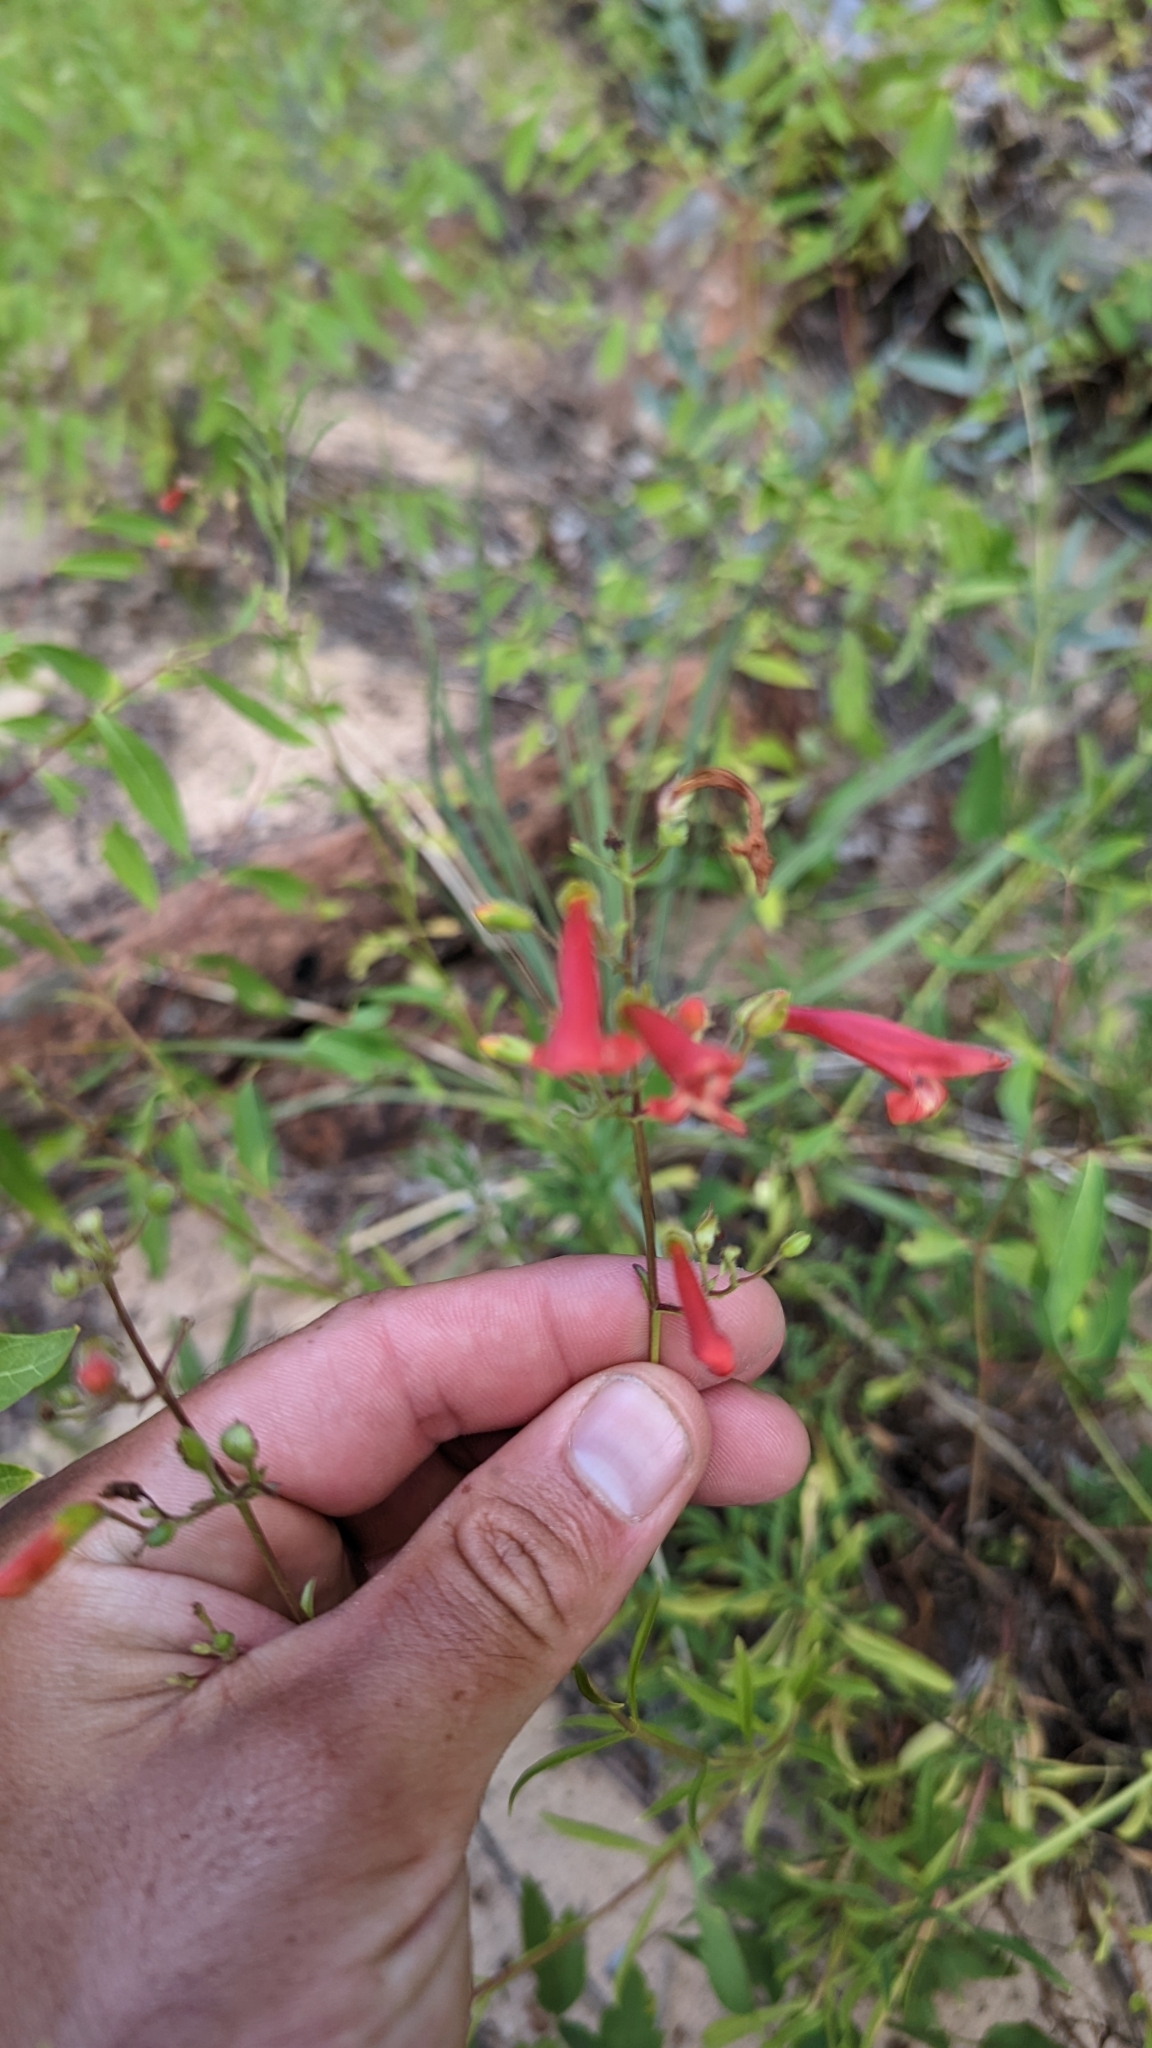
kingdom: Plantae
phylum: Tracheophyta
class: Magnoliopsida
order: Lamiales
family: Plantaginaceae
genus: Penstemon
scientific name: Penstemon rostriflorus
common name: Bridges's penstemon
